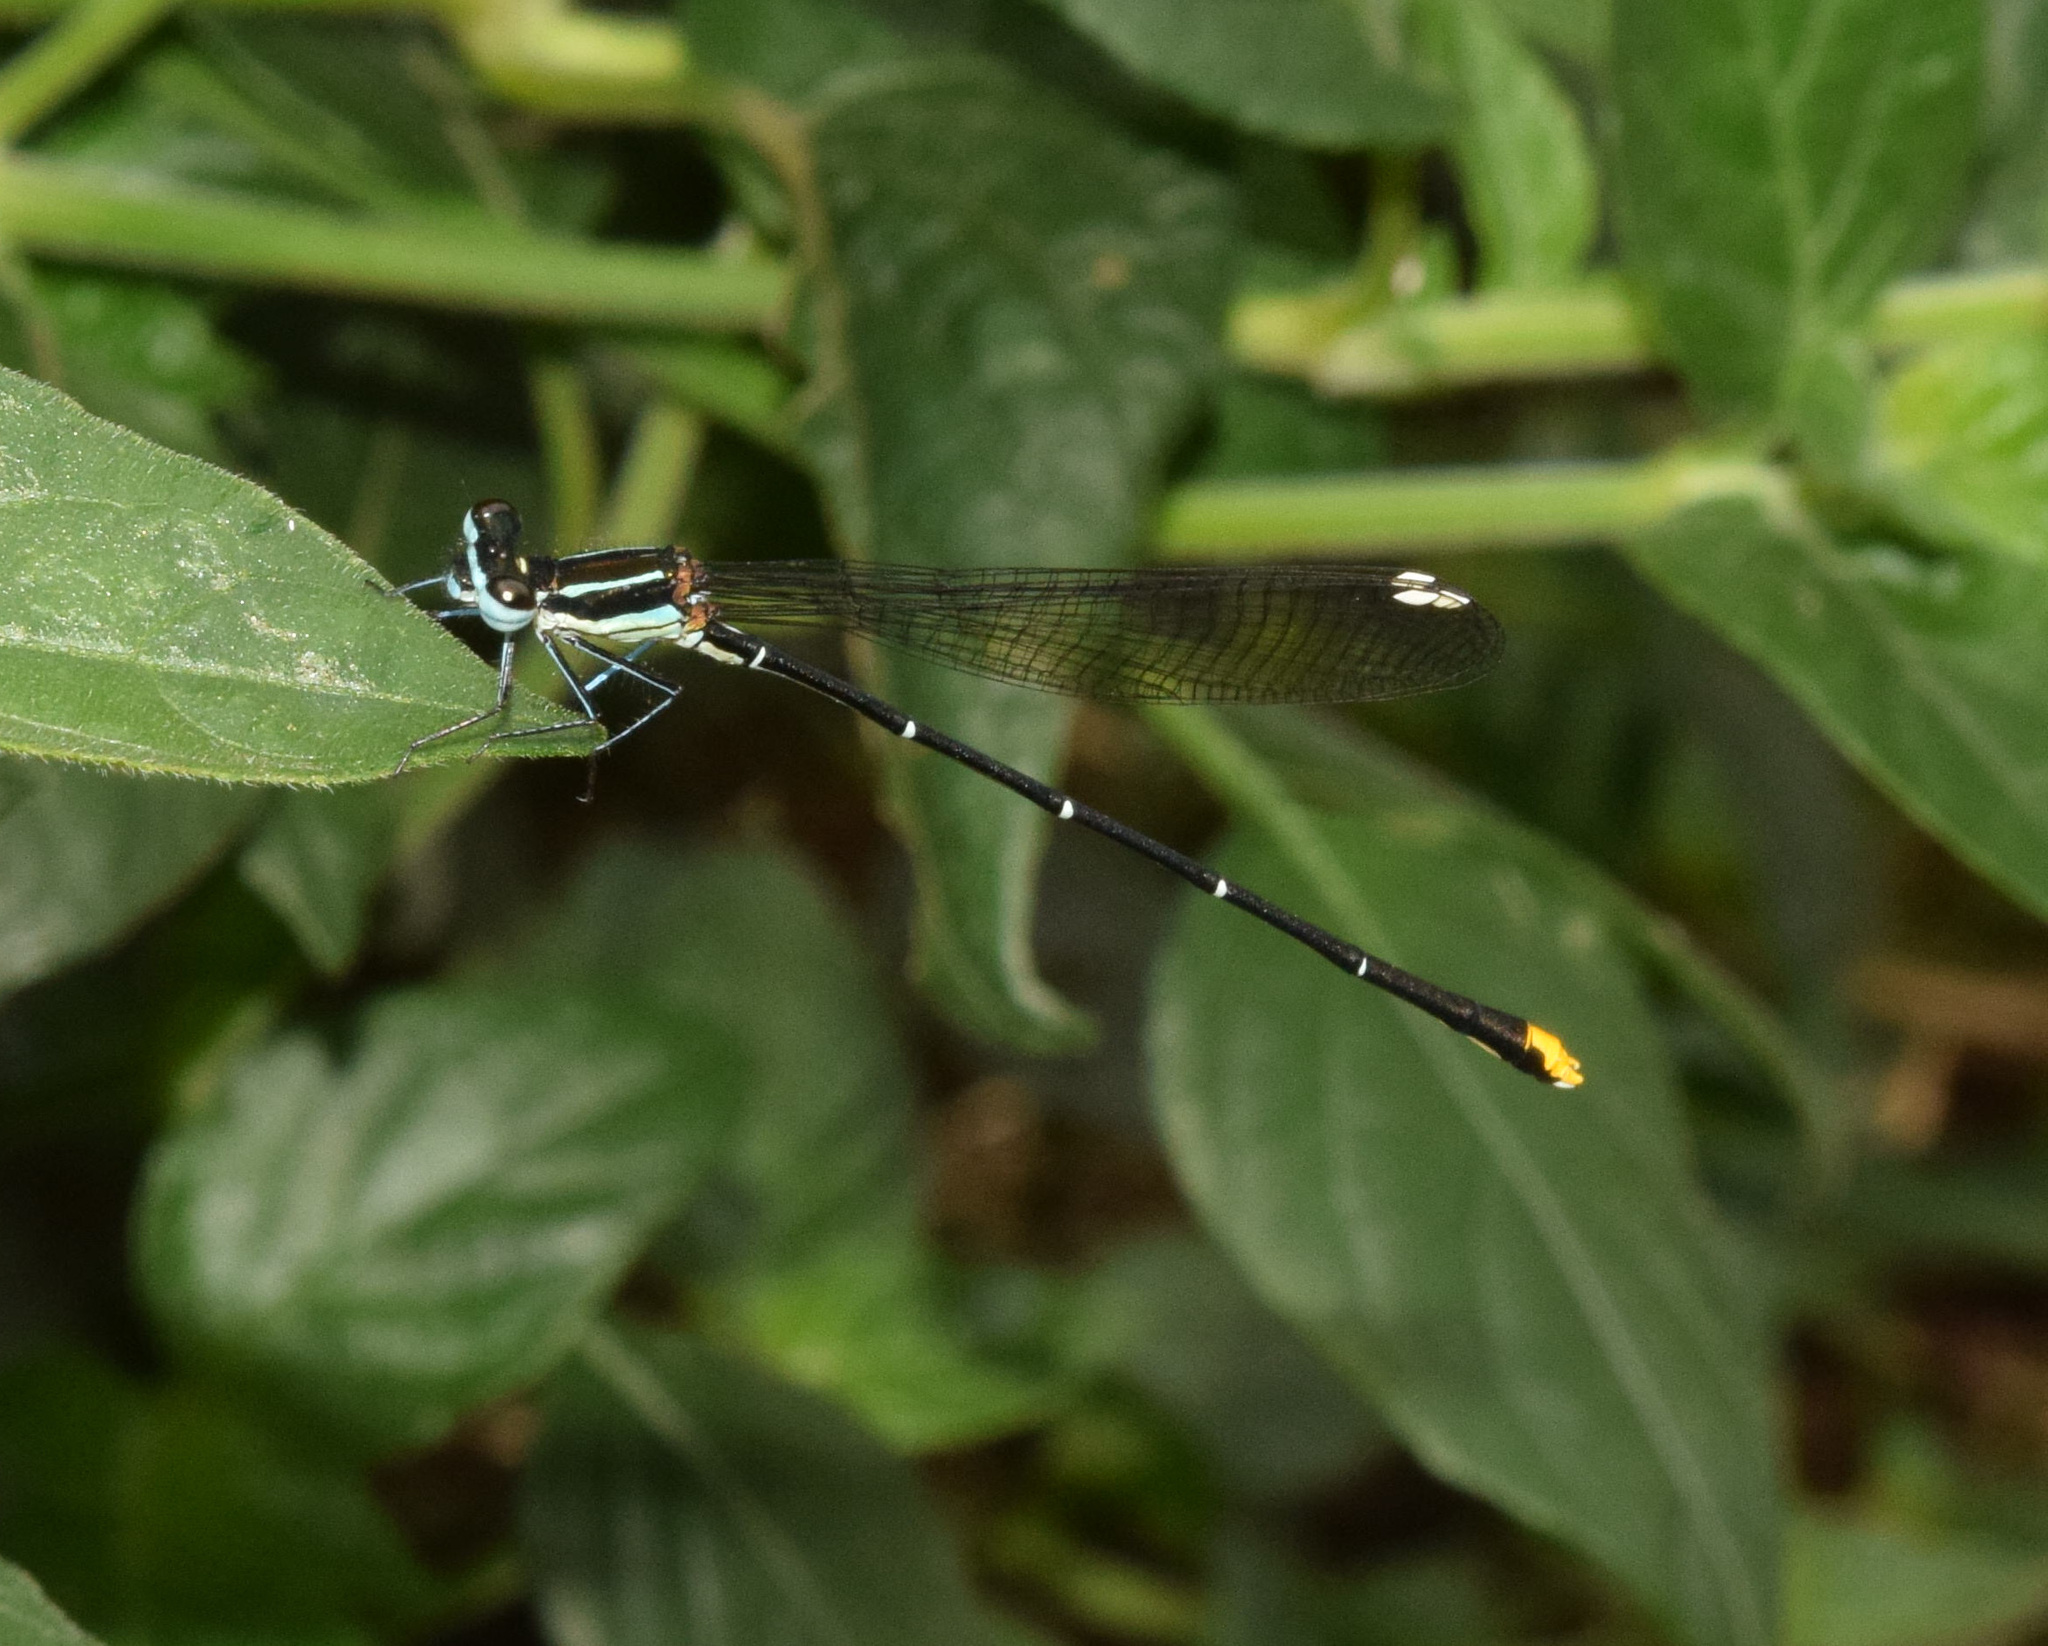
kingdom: Animalia
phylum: Arthropoda
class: Insecta
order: Odonata
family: Platycnemididae
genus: Allocnemis
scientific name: Allocnemis leucosticta
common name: Goldtail
